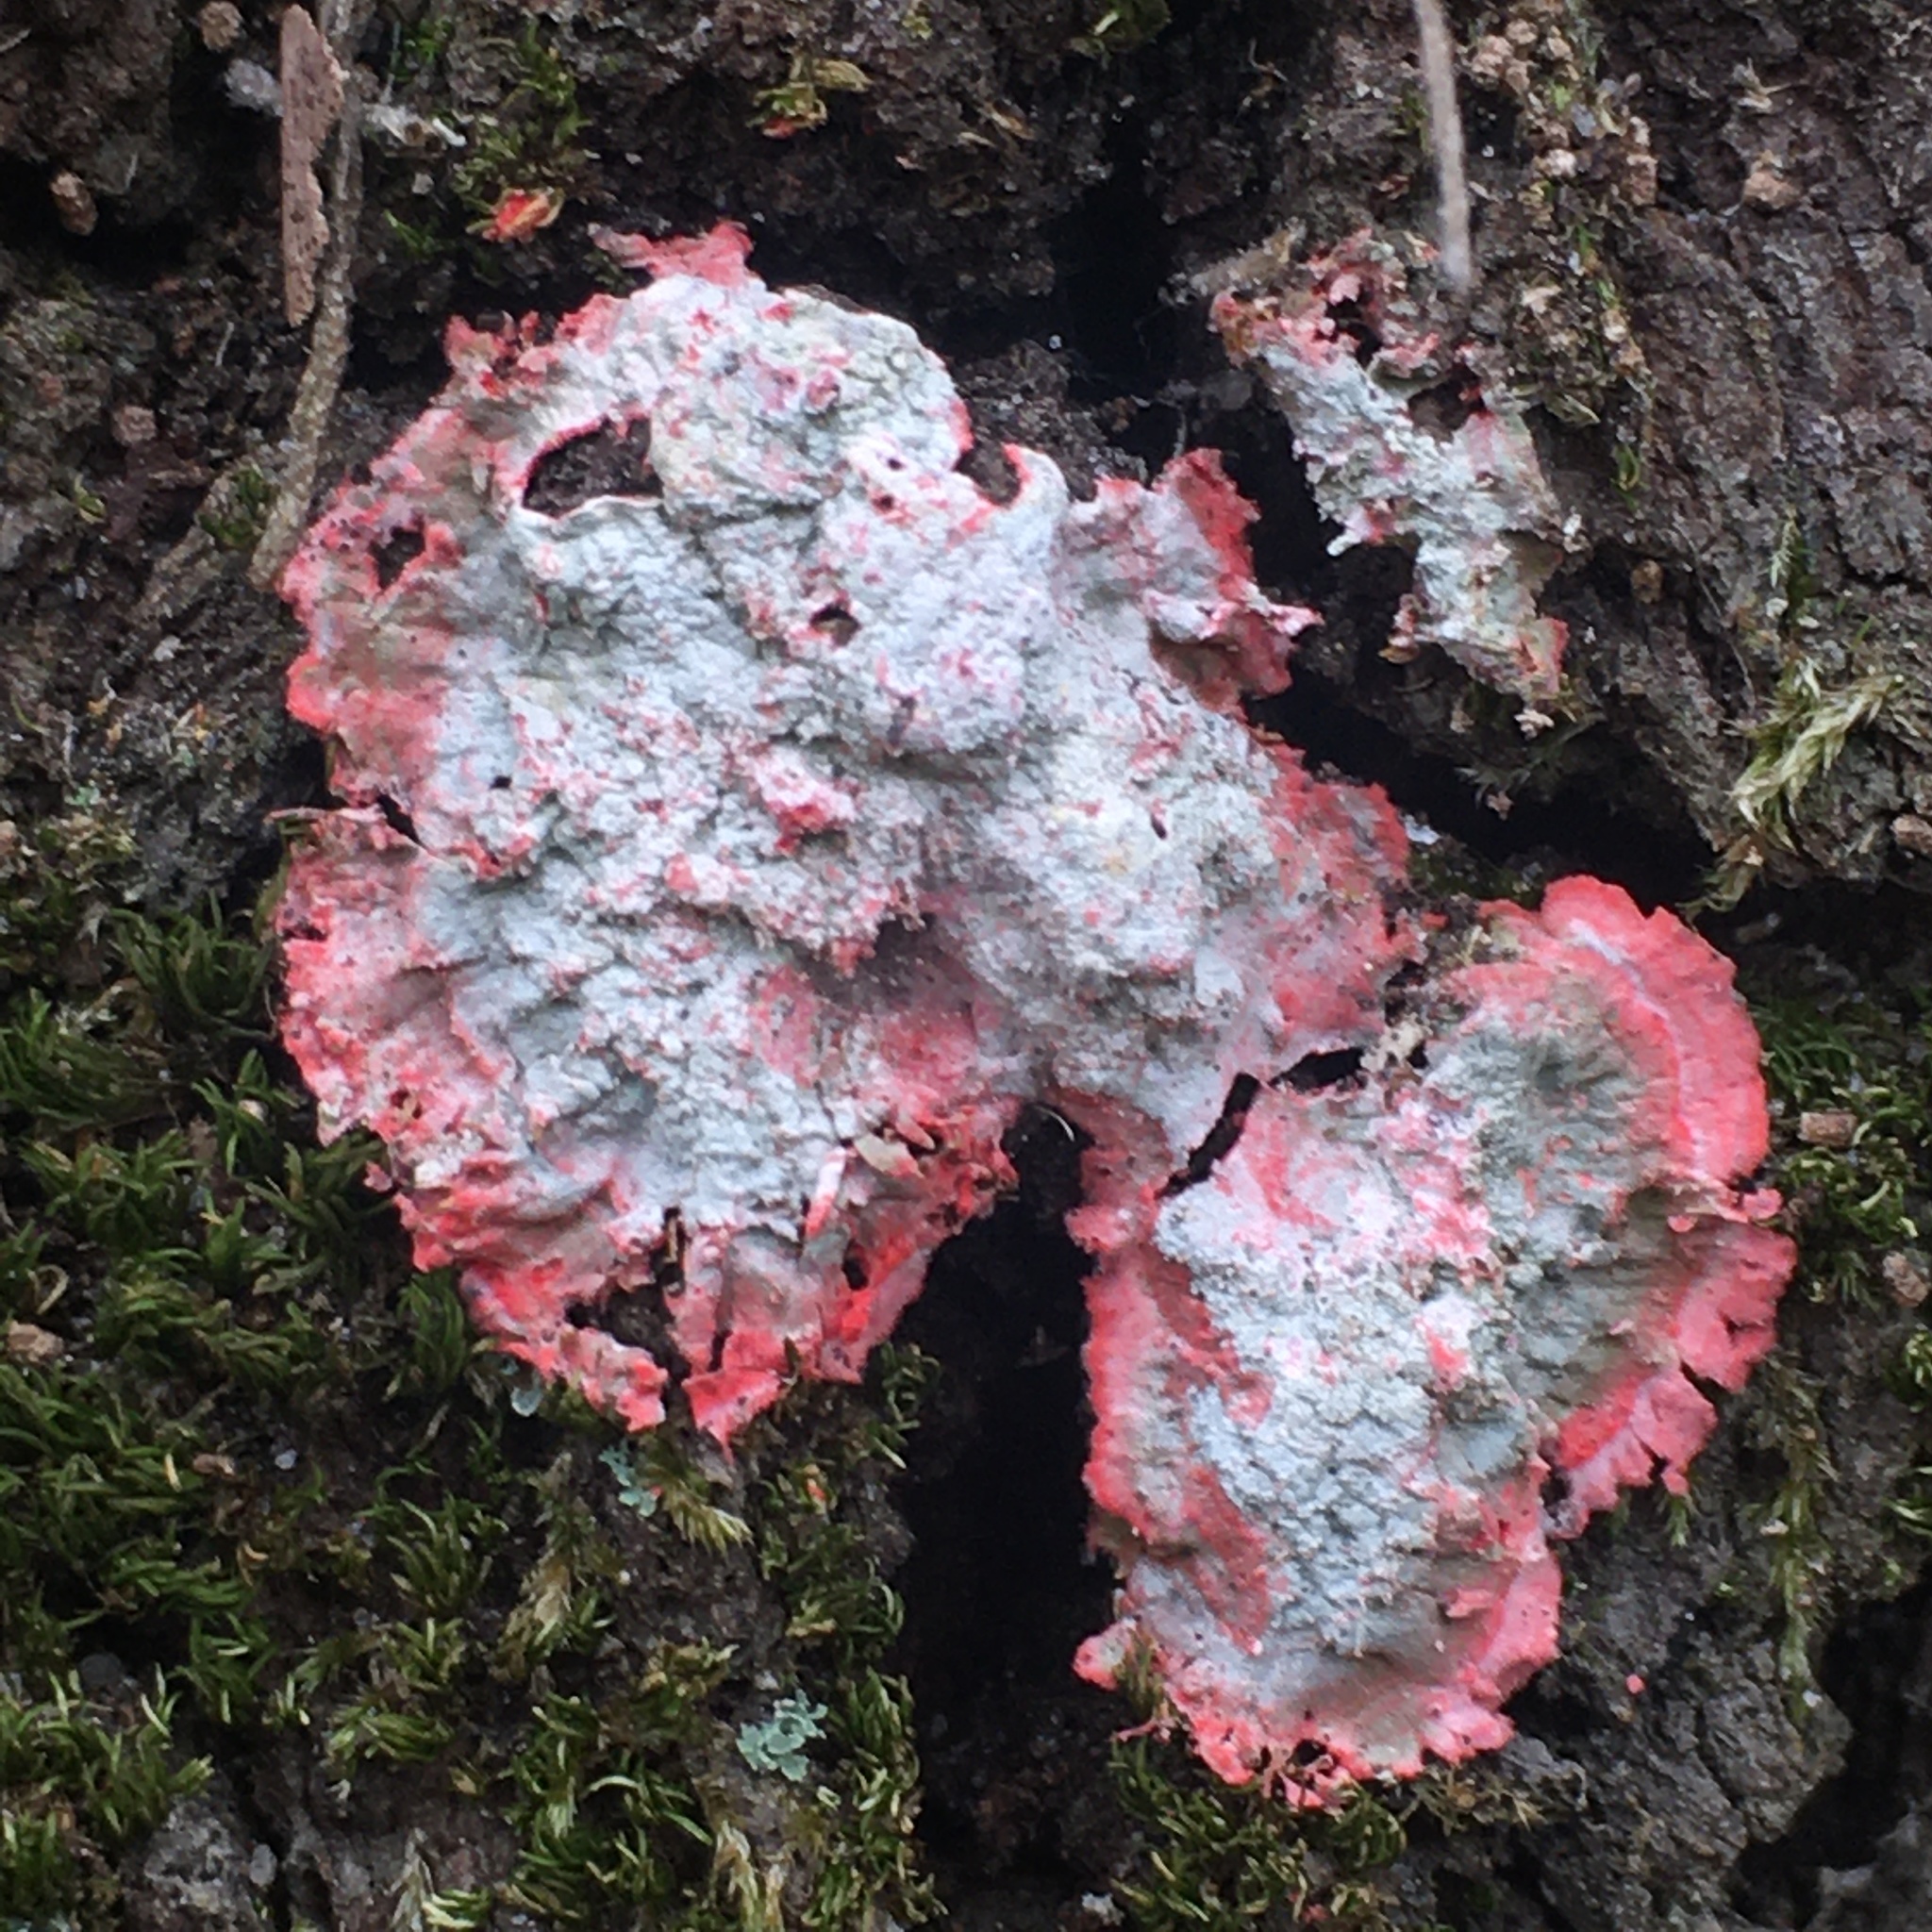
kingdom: Fungi
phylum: Ascomycota
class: Arthoniomycetes
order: Arthoniales
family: Arthoniaceae
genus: Herpothallon
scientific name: Herpothallon rubrocinctum
